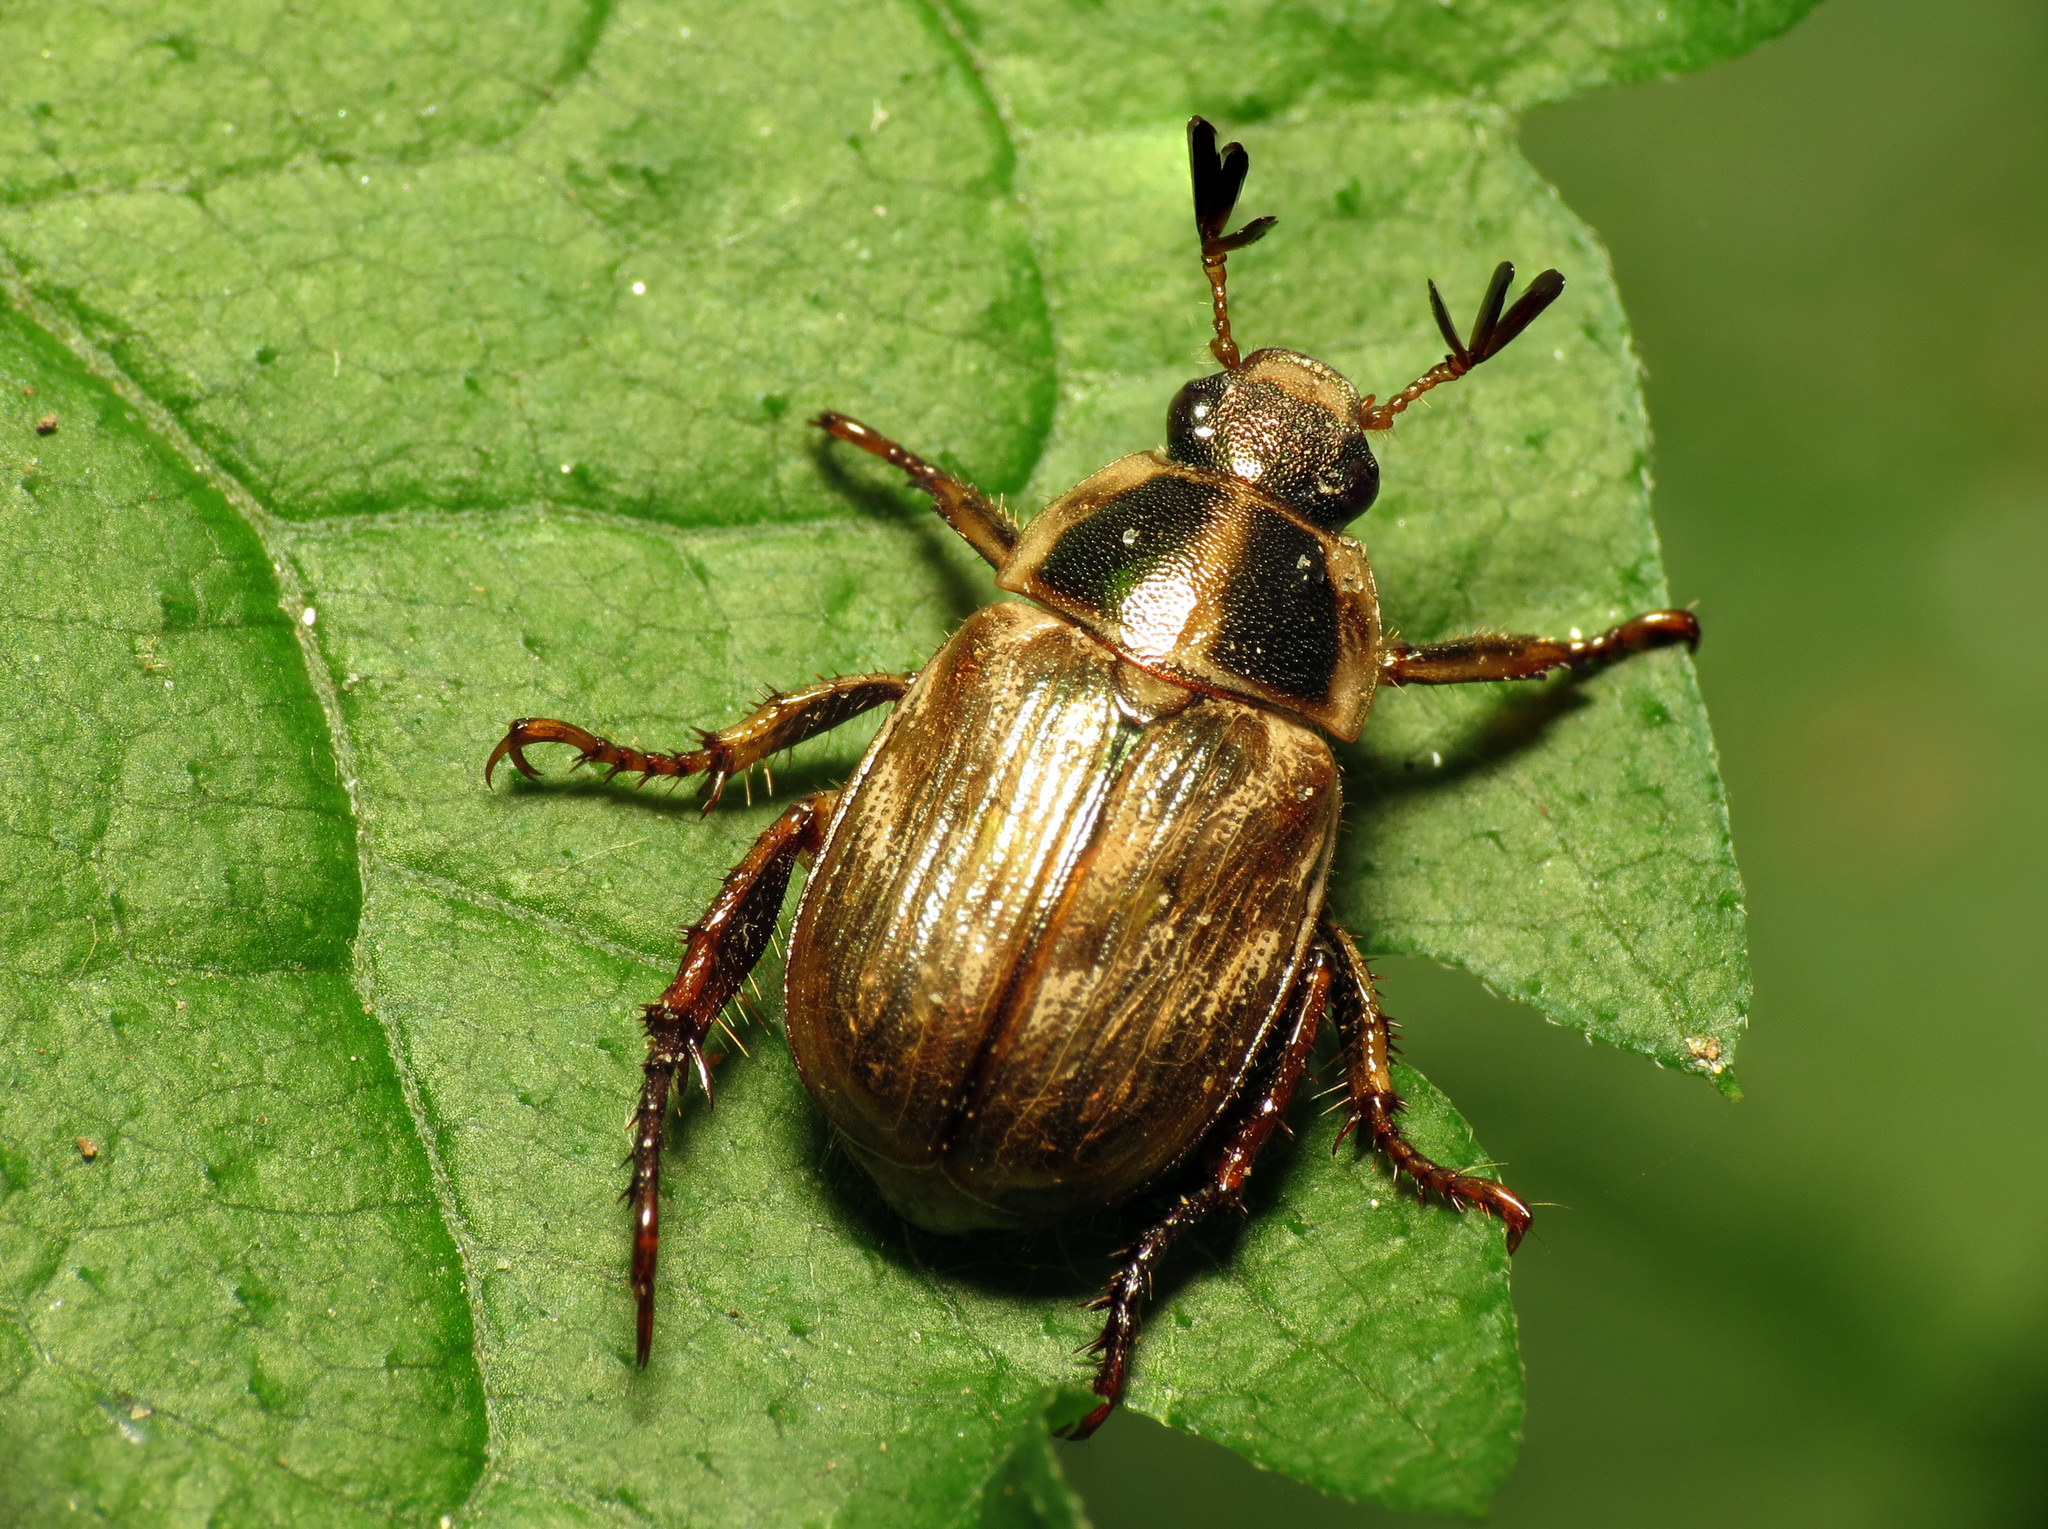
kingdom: Animalia
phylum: Arthropoda
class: Insecta
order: Coleoptera
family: Scarabaeidae
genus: Exomala
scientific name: Exomala orientalis
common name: Oriental beetle
